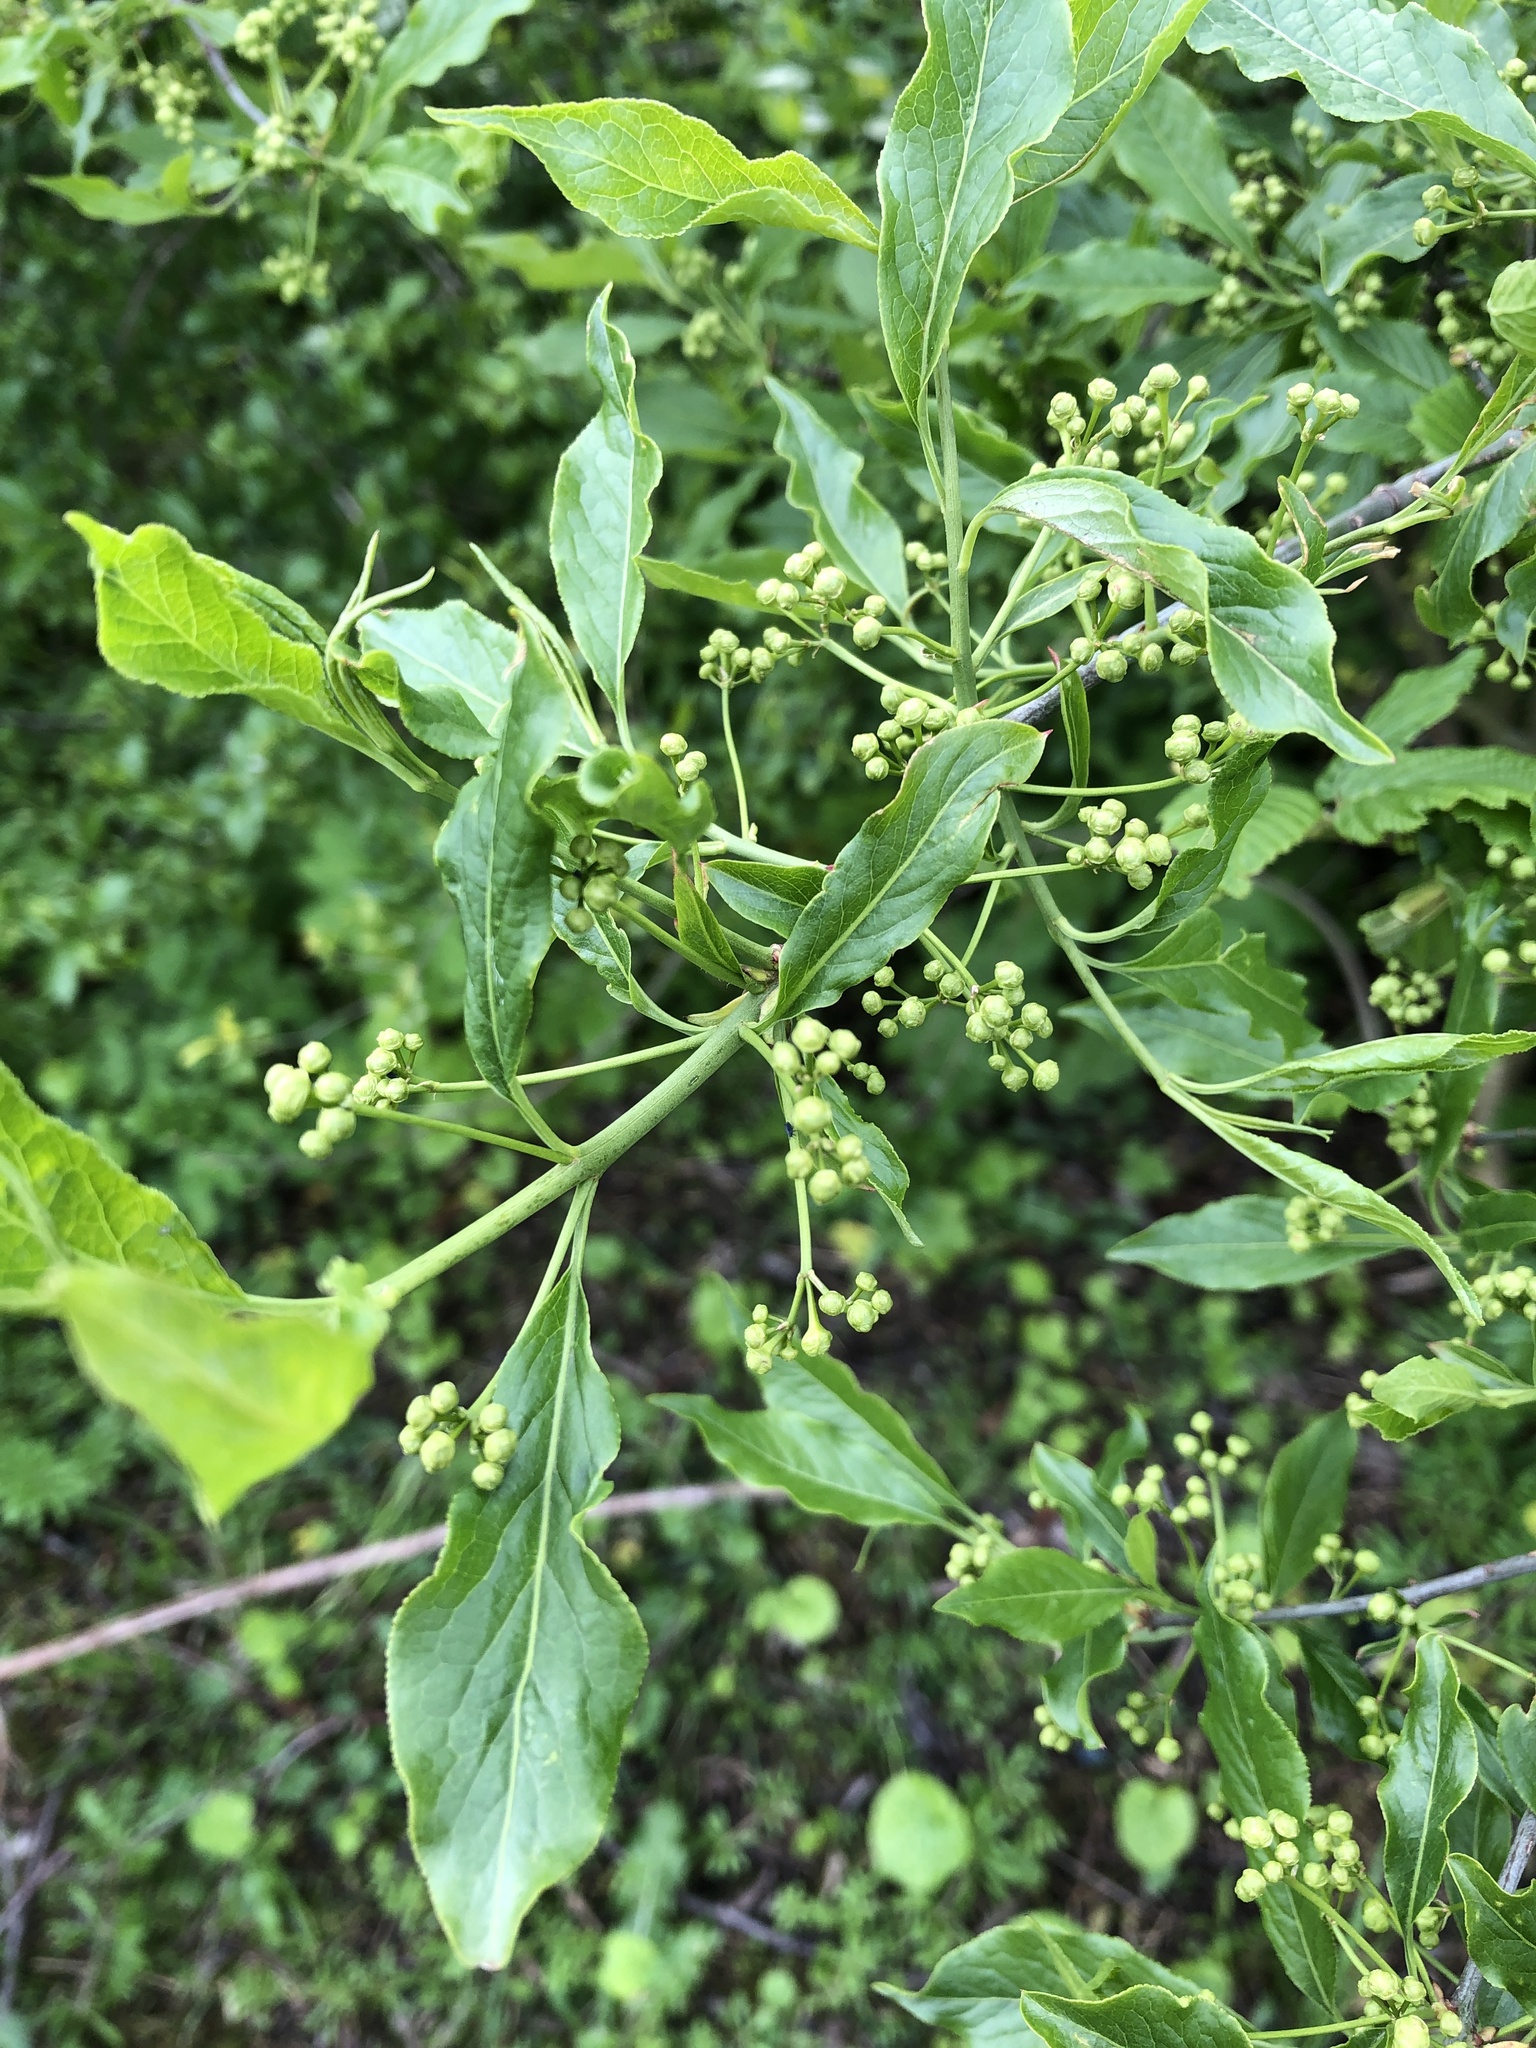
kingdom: Plantae
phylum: Tracheophyta
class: Magnoliopsida
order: Celastrales
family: Celastraceae
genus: Euonymus
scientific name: Euonymus europaeus
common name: Spindle
